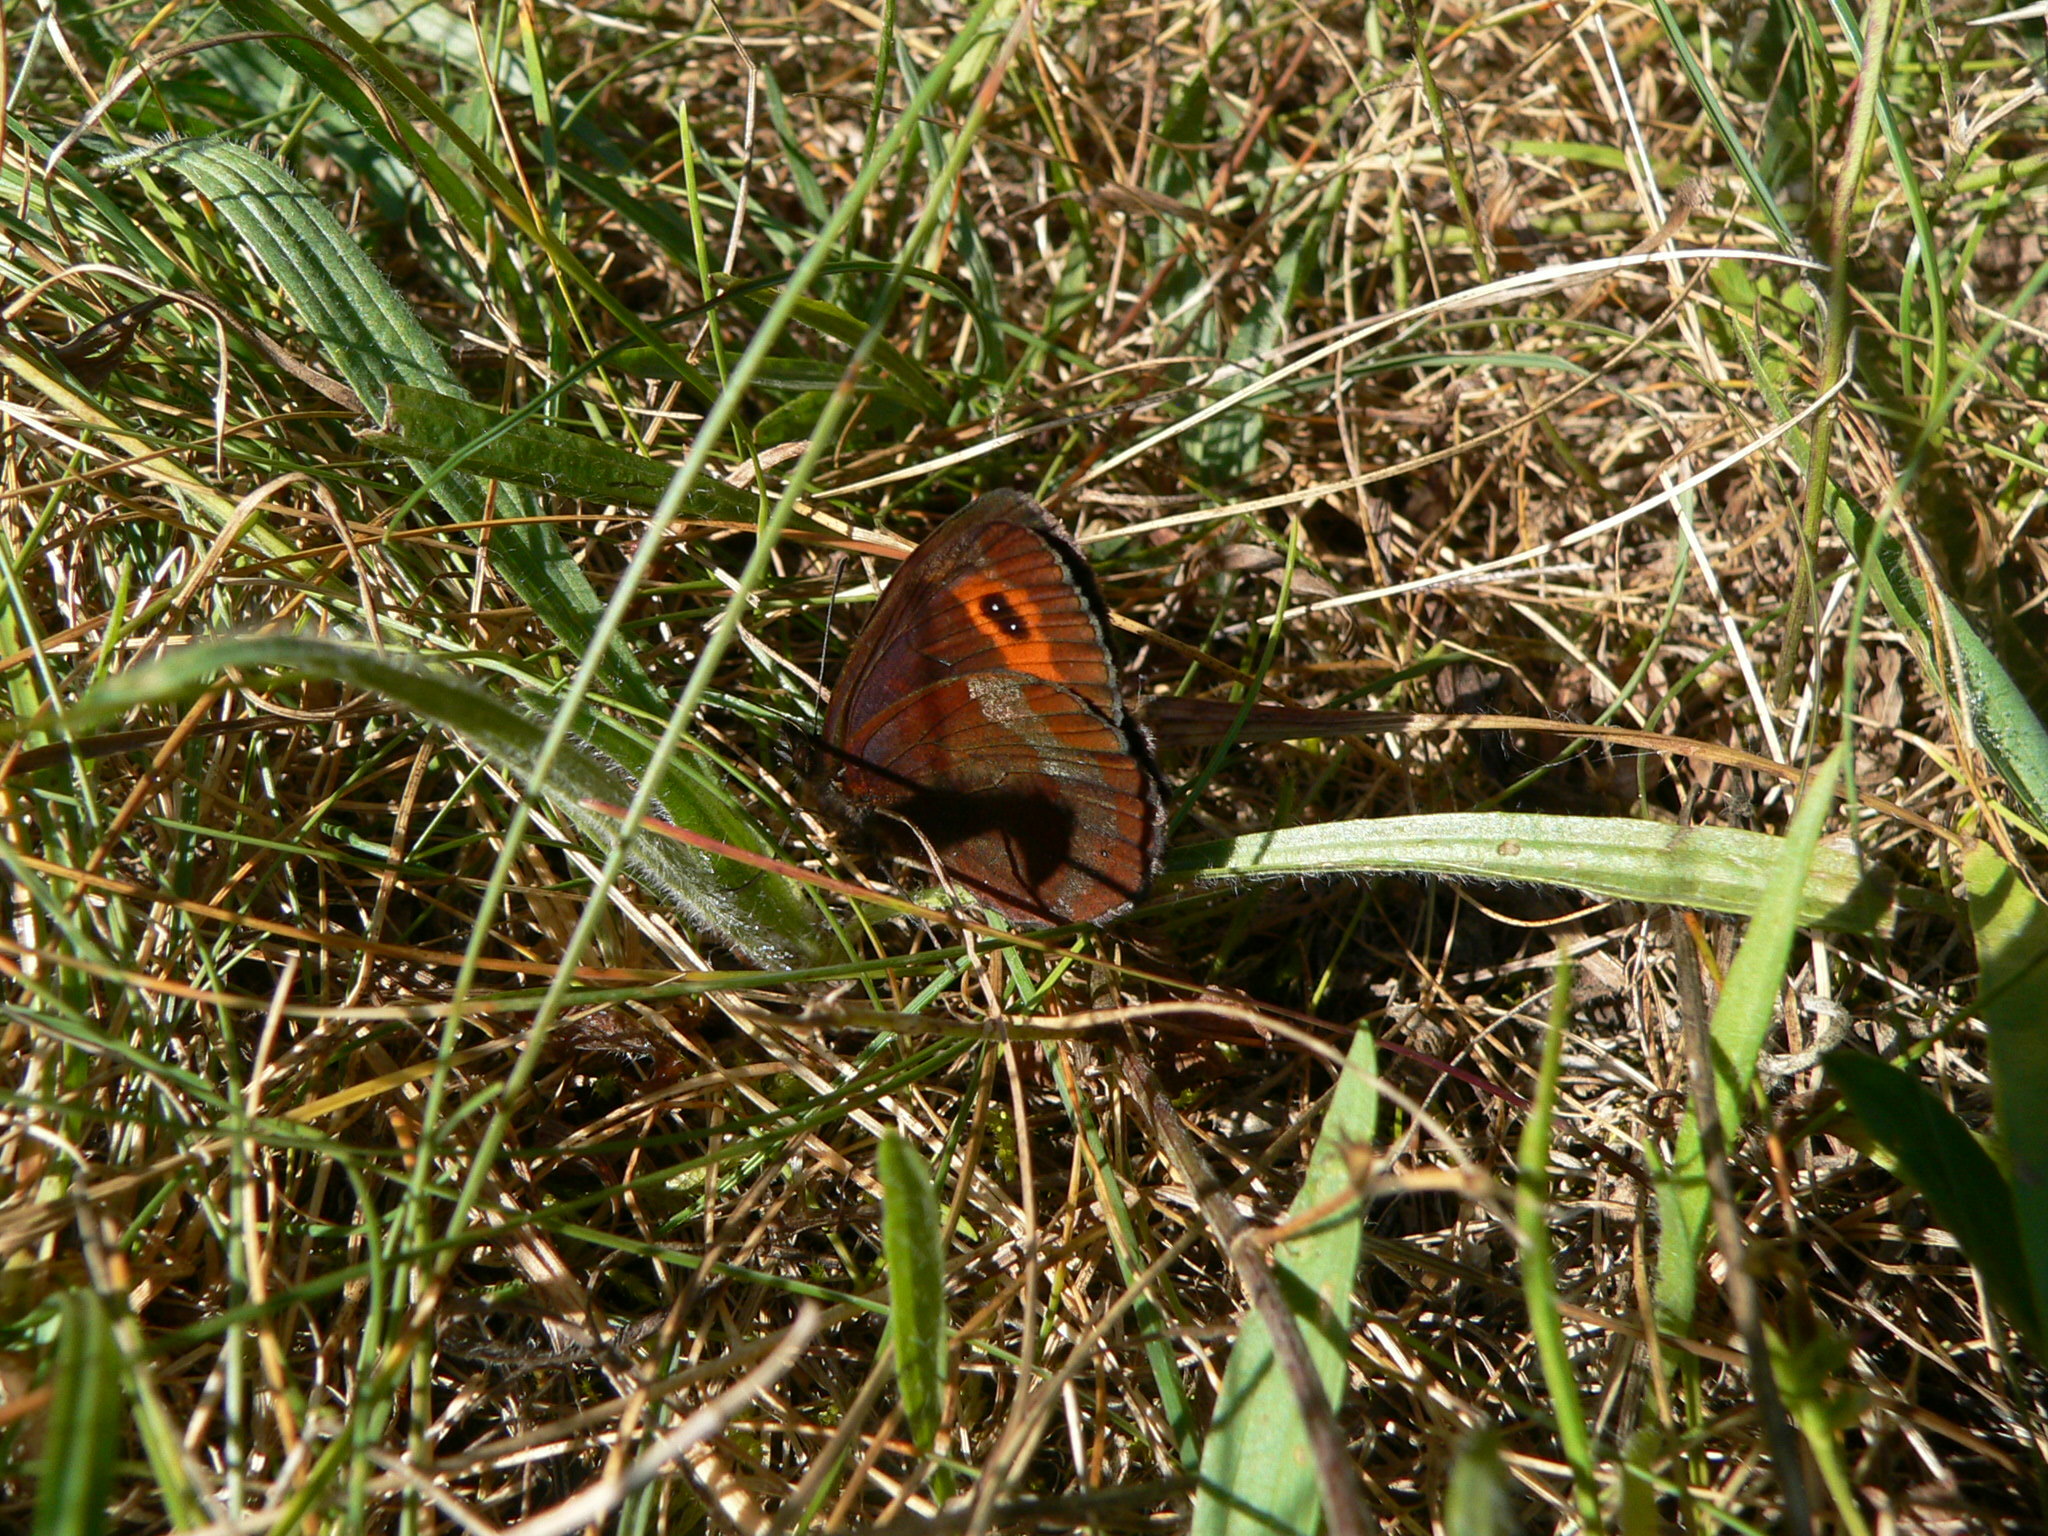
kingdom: Animalia
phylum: Arthropoda
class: Insecta
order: Lepidoptera
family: Nymphalidae
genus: Erebia
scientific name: Erebia aethiops
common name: Scotch argus
